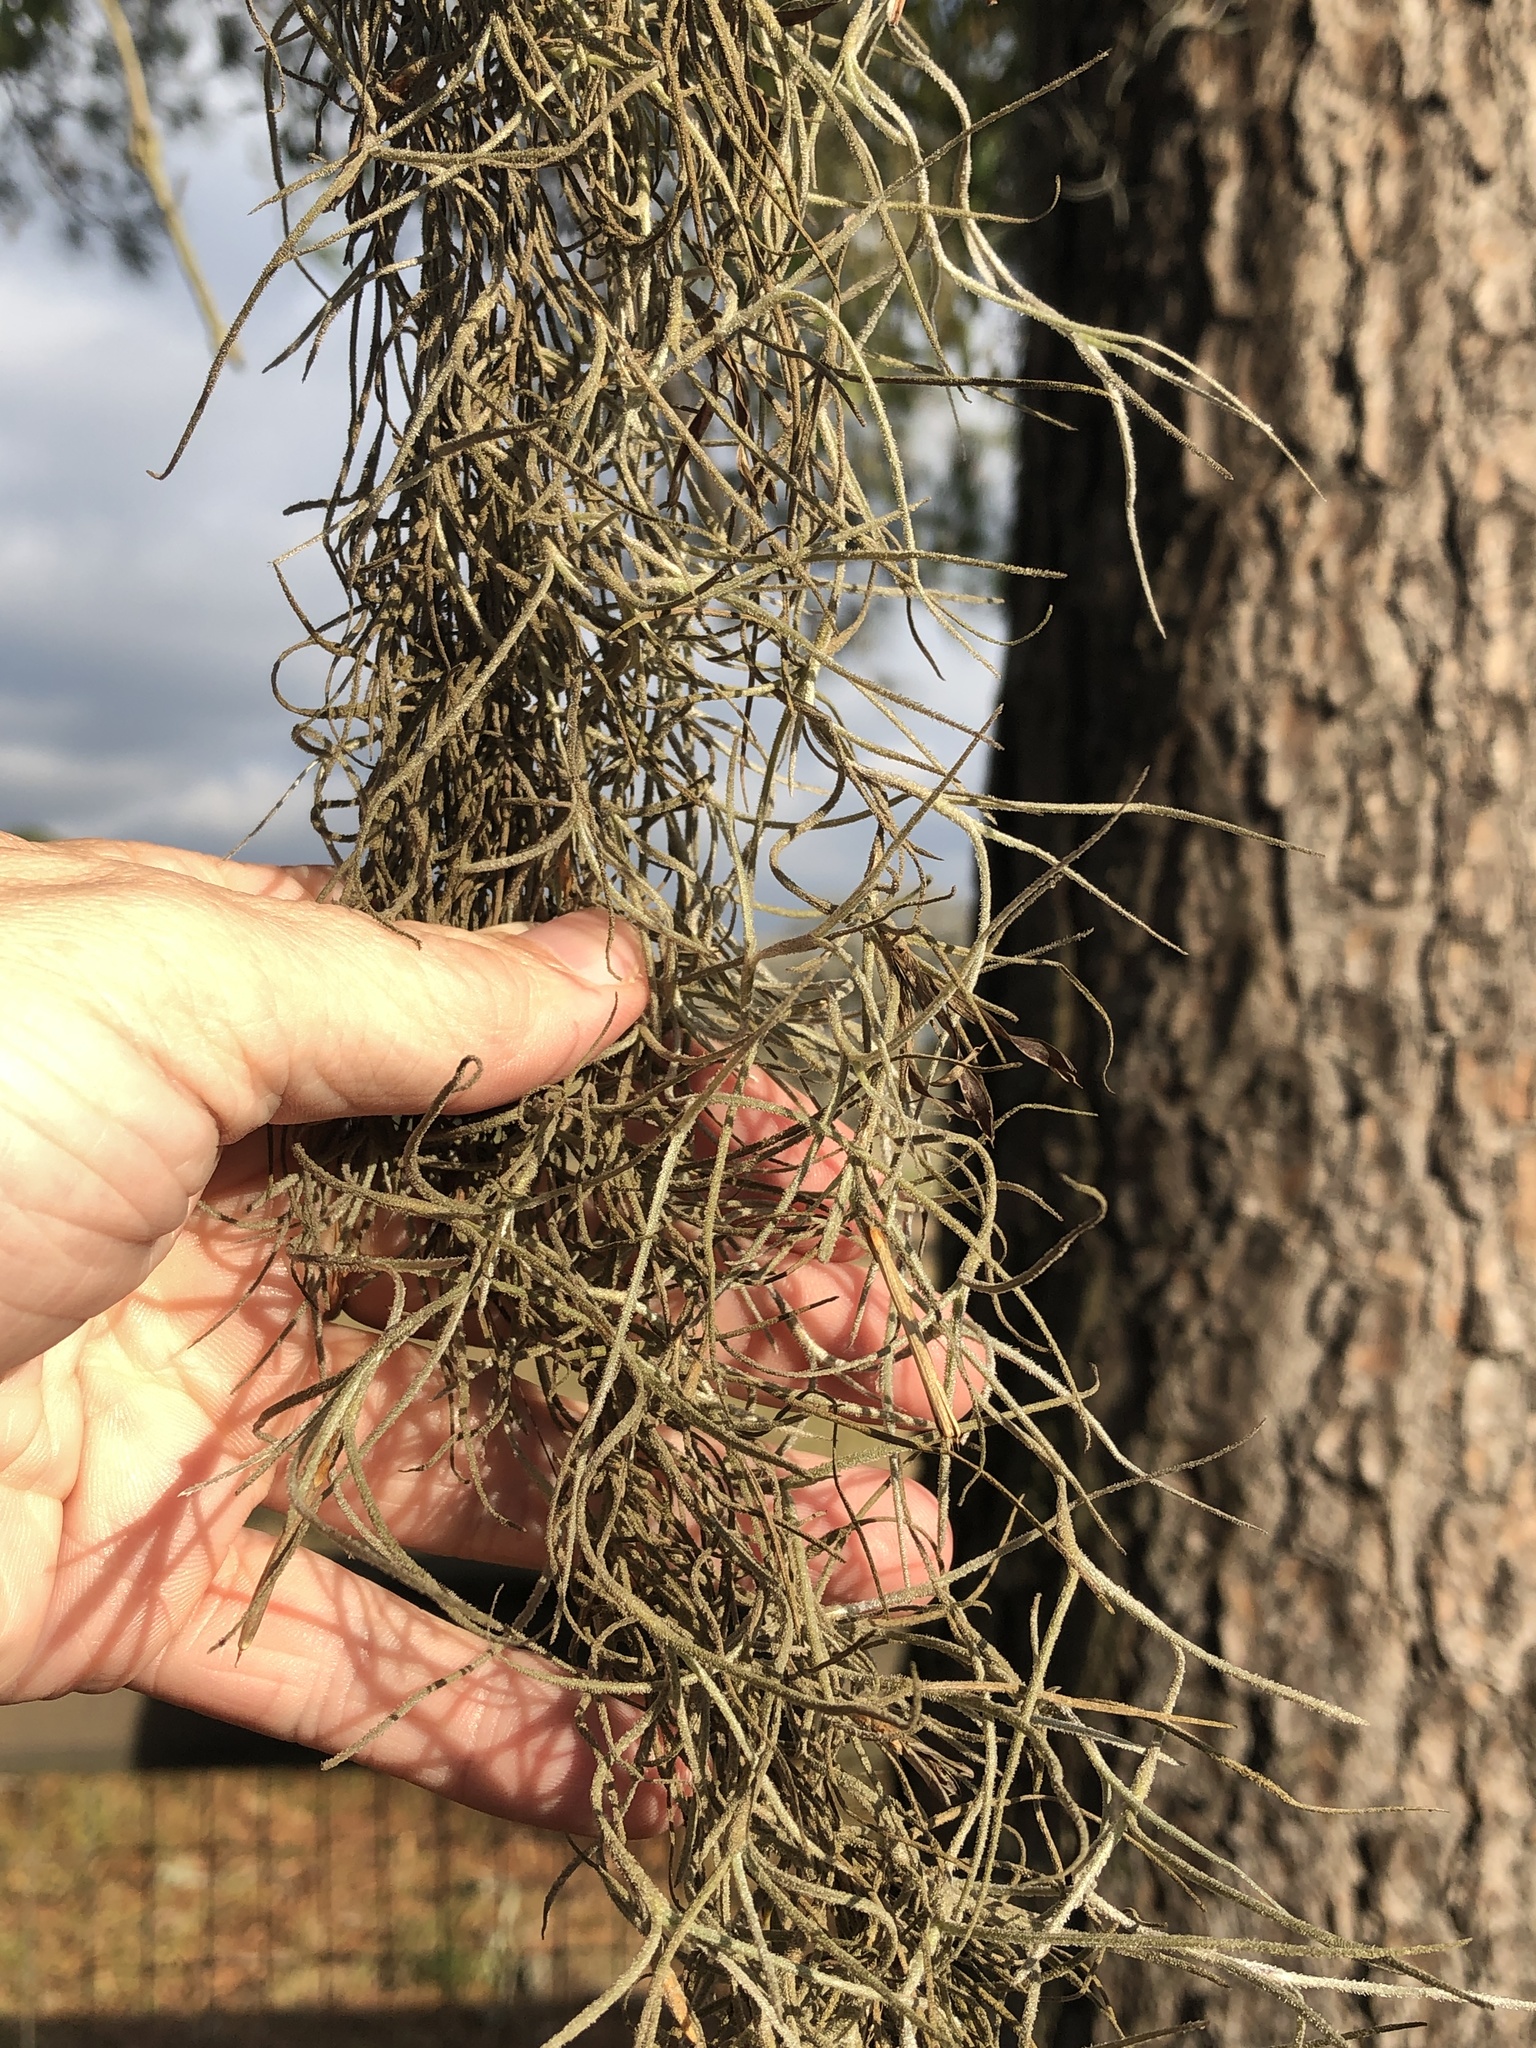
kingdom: Plantae
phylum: Tracheophyta
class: Liliopsida
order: Poales
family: Bromeliaceae
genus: Tillandsia
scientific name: Tillandsia usneoides
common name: Spanish moss
